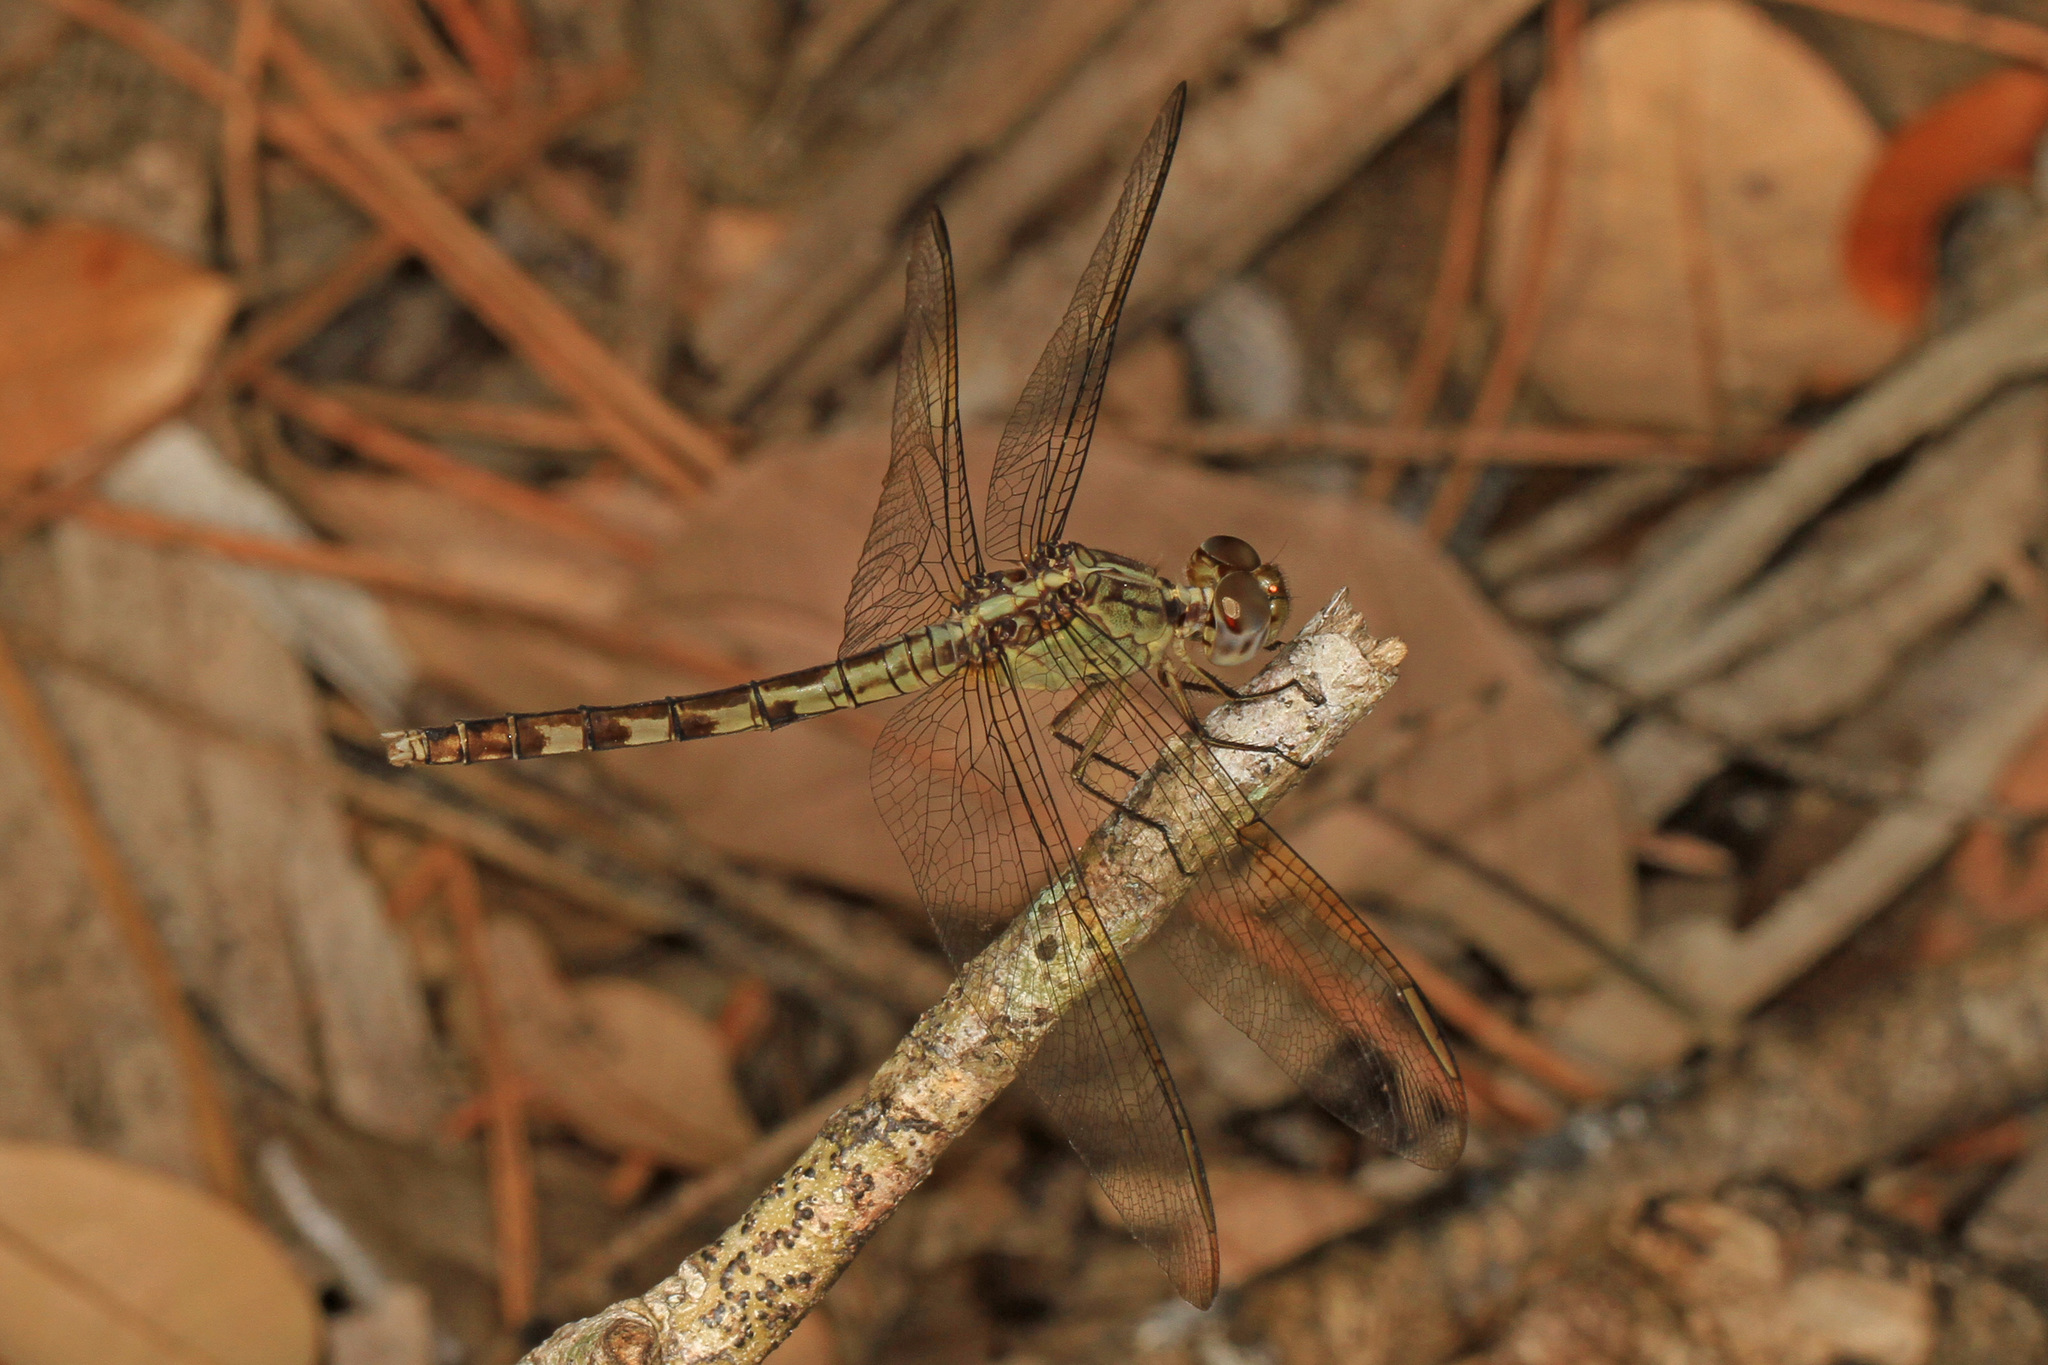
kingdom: Animalia
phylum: Arthropoda
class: Insecta
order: Odonata
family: Libellulidae
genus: Erythrodiplax
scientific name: Erythrodiplax umbrata
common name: Band-winged dragonlet
